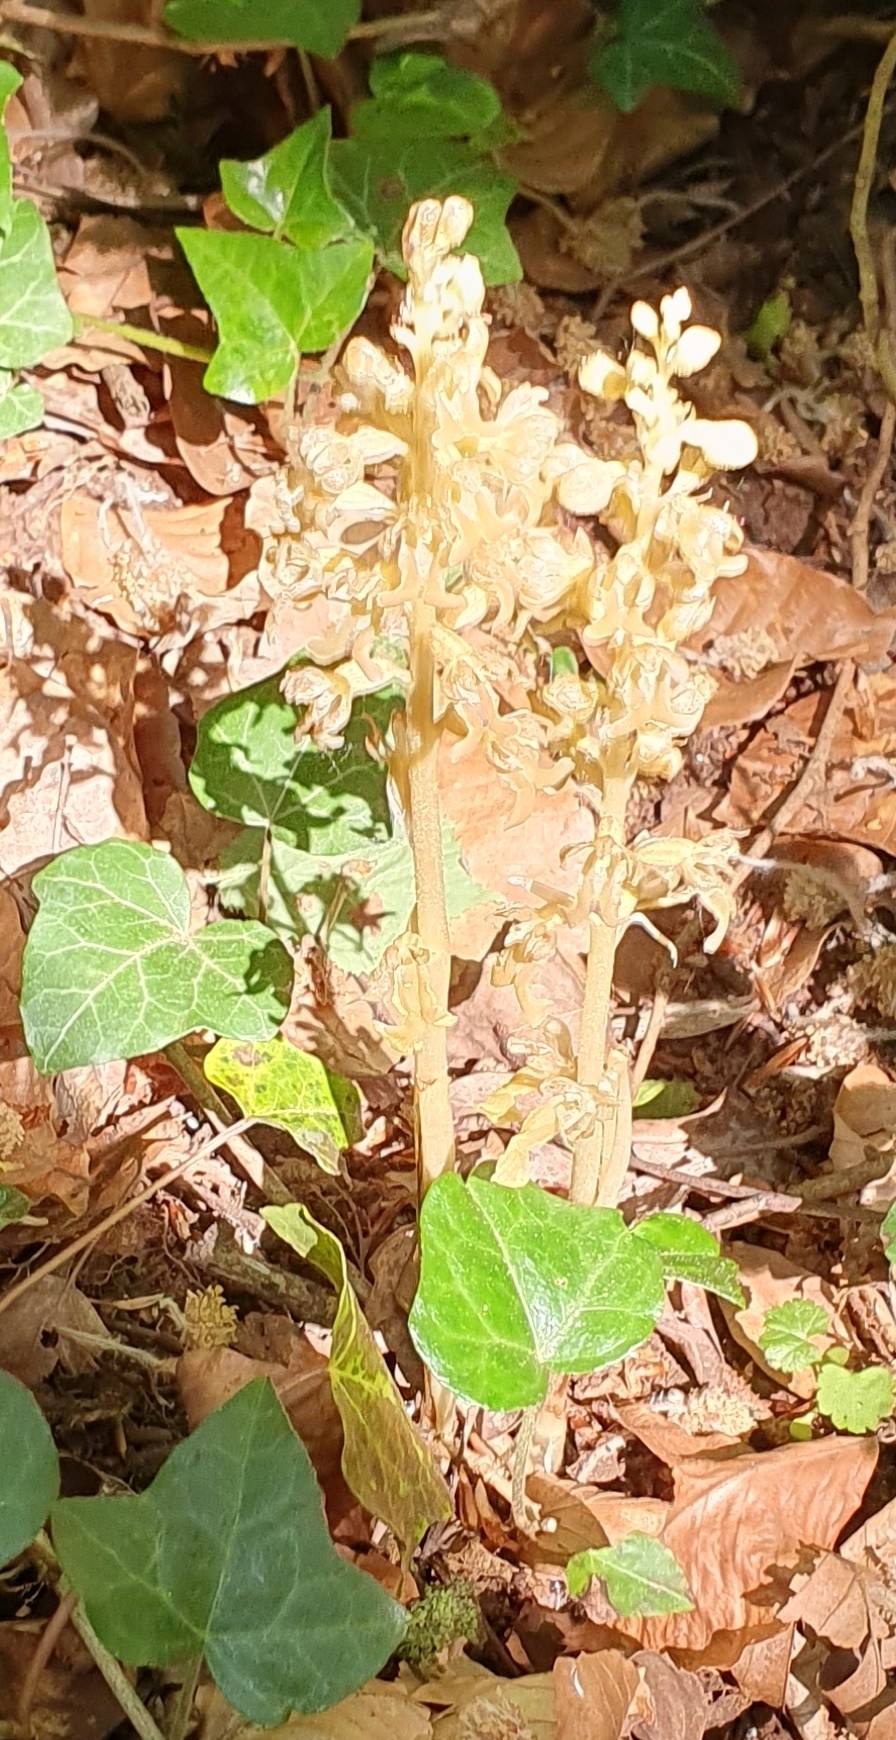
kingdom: Plantae
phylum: Tracheophyta
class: Liliopsida
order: Asparagales
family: Orchidaceae
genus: Neottia
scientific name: Neottia nidus-avis
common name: Bird's-nest orchid
